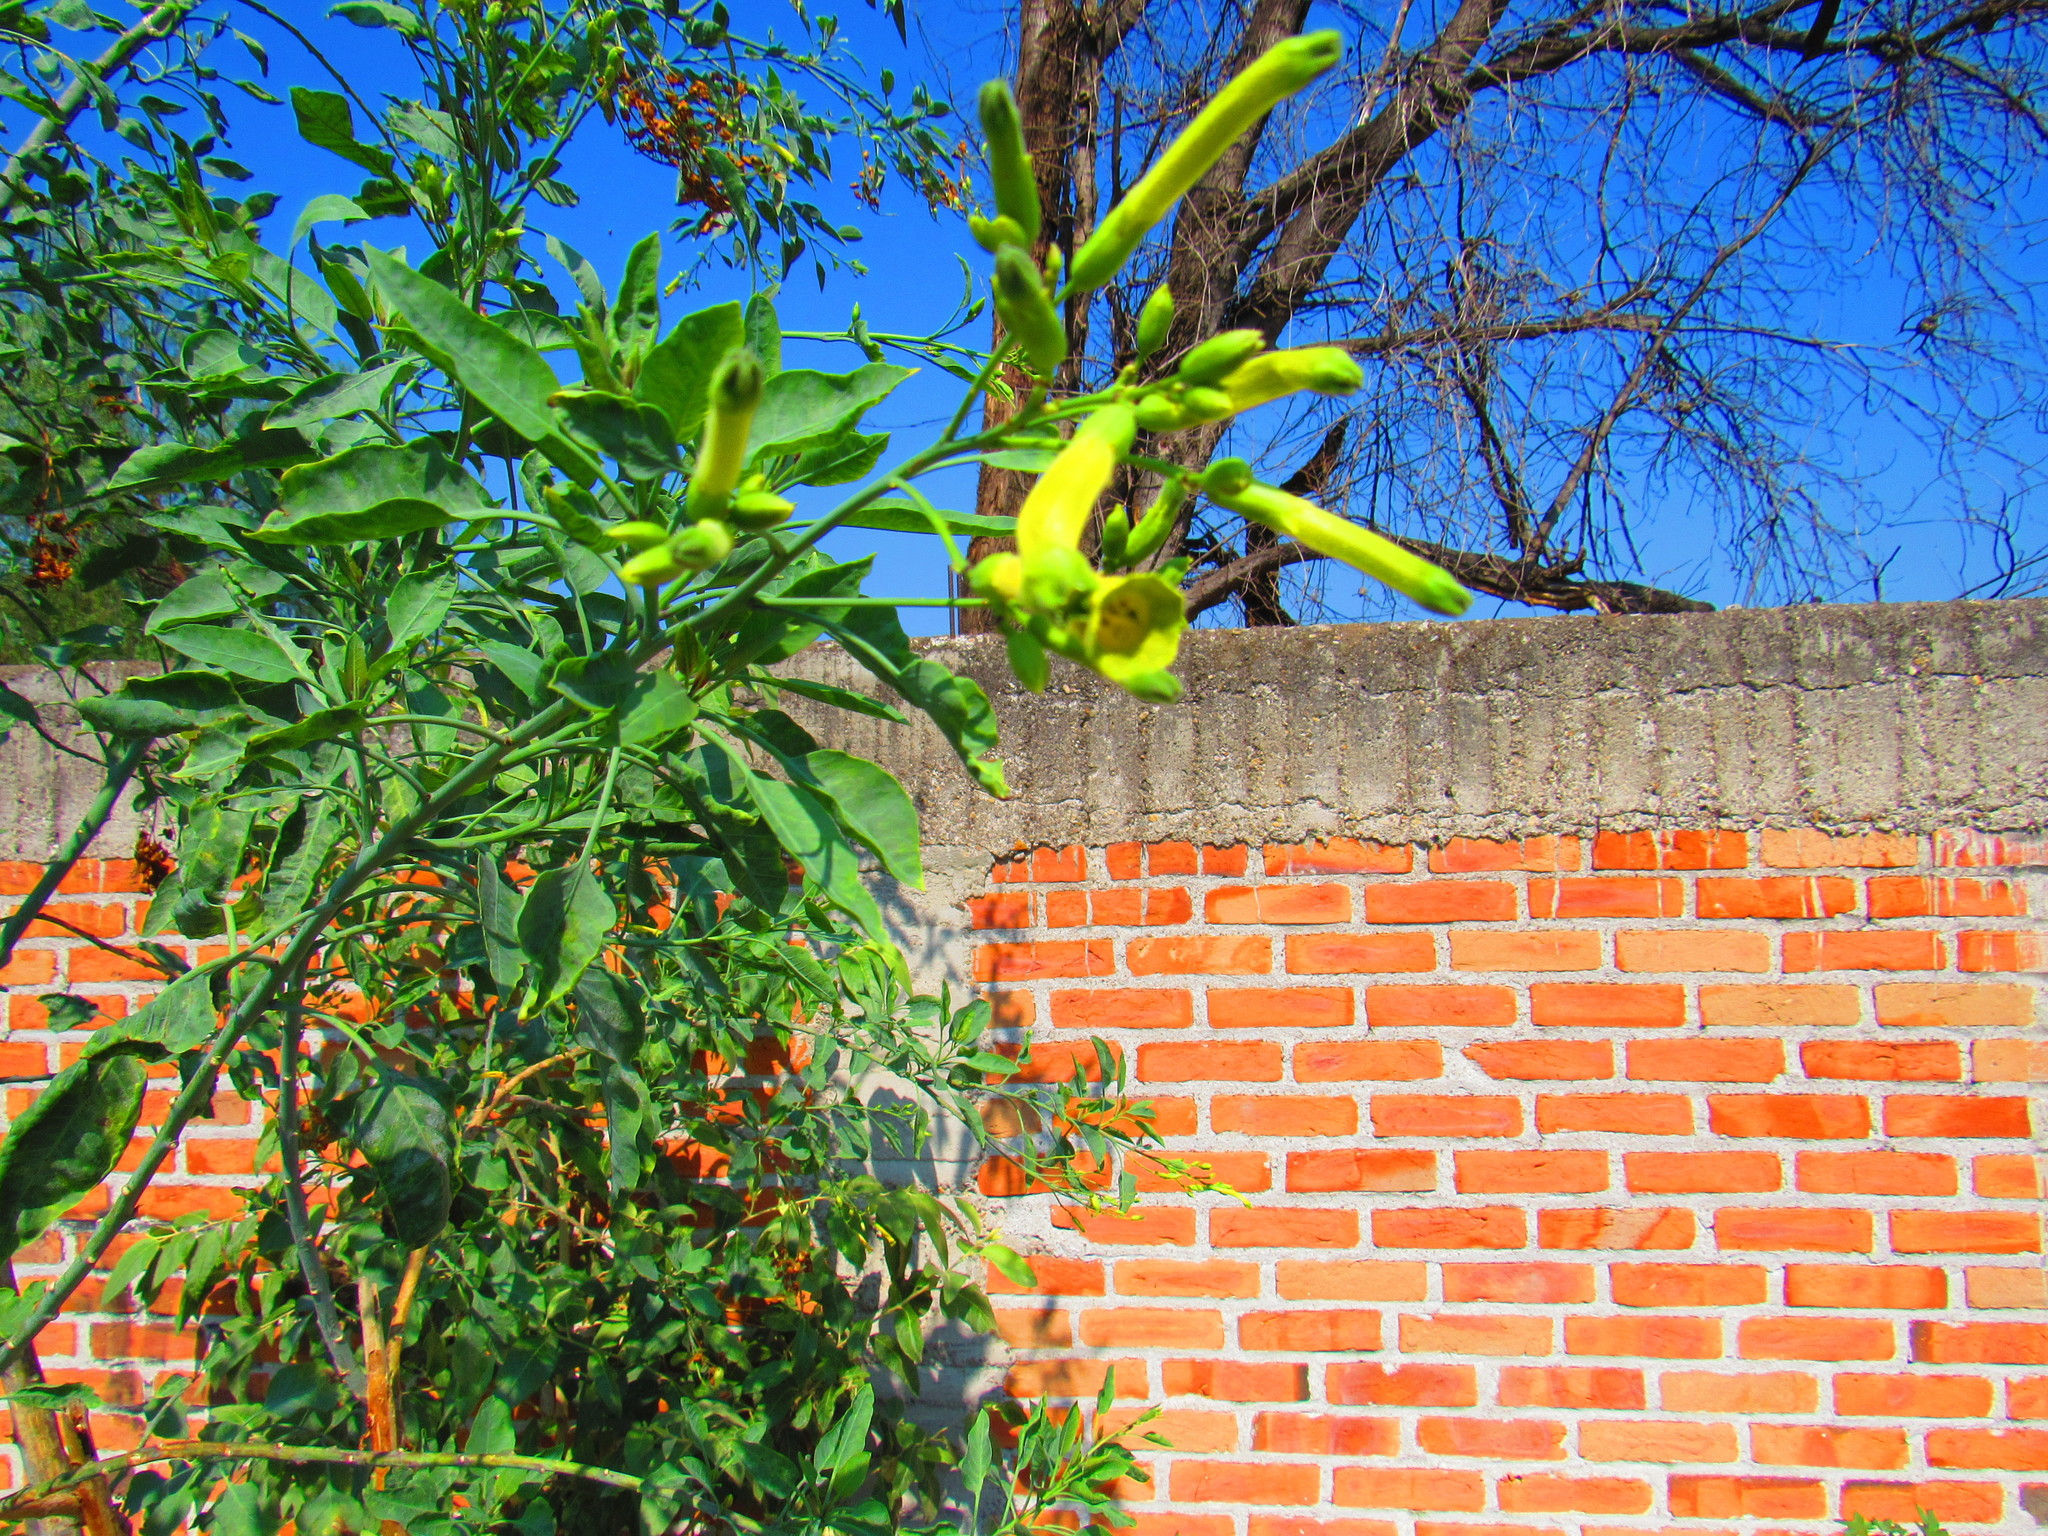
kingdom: Plantae
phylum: Tracheophyta
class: Magnoliopsida
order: Solanales
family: Solanaceae
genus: Nicotiana
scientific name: Nicotiana glauca
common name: Tree tobacco
